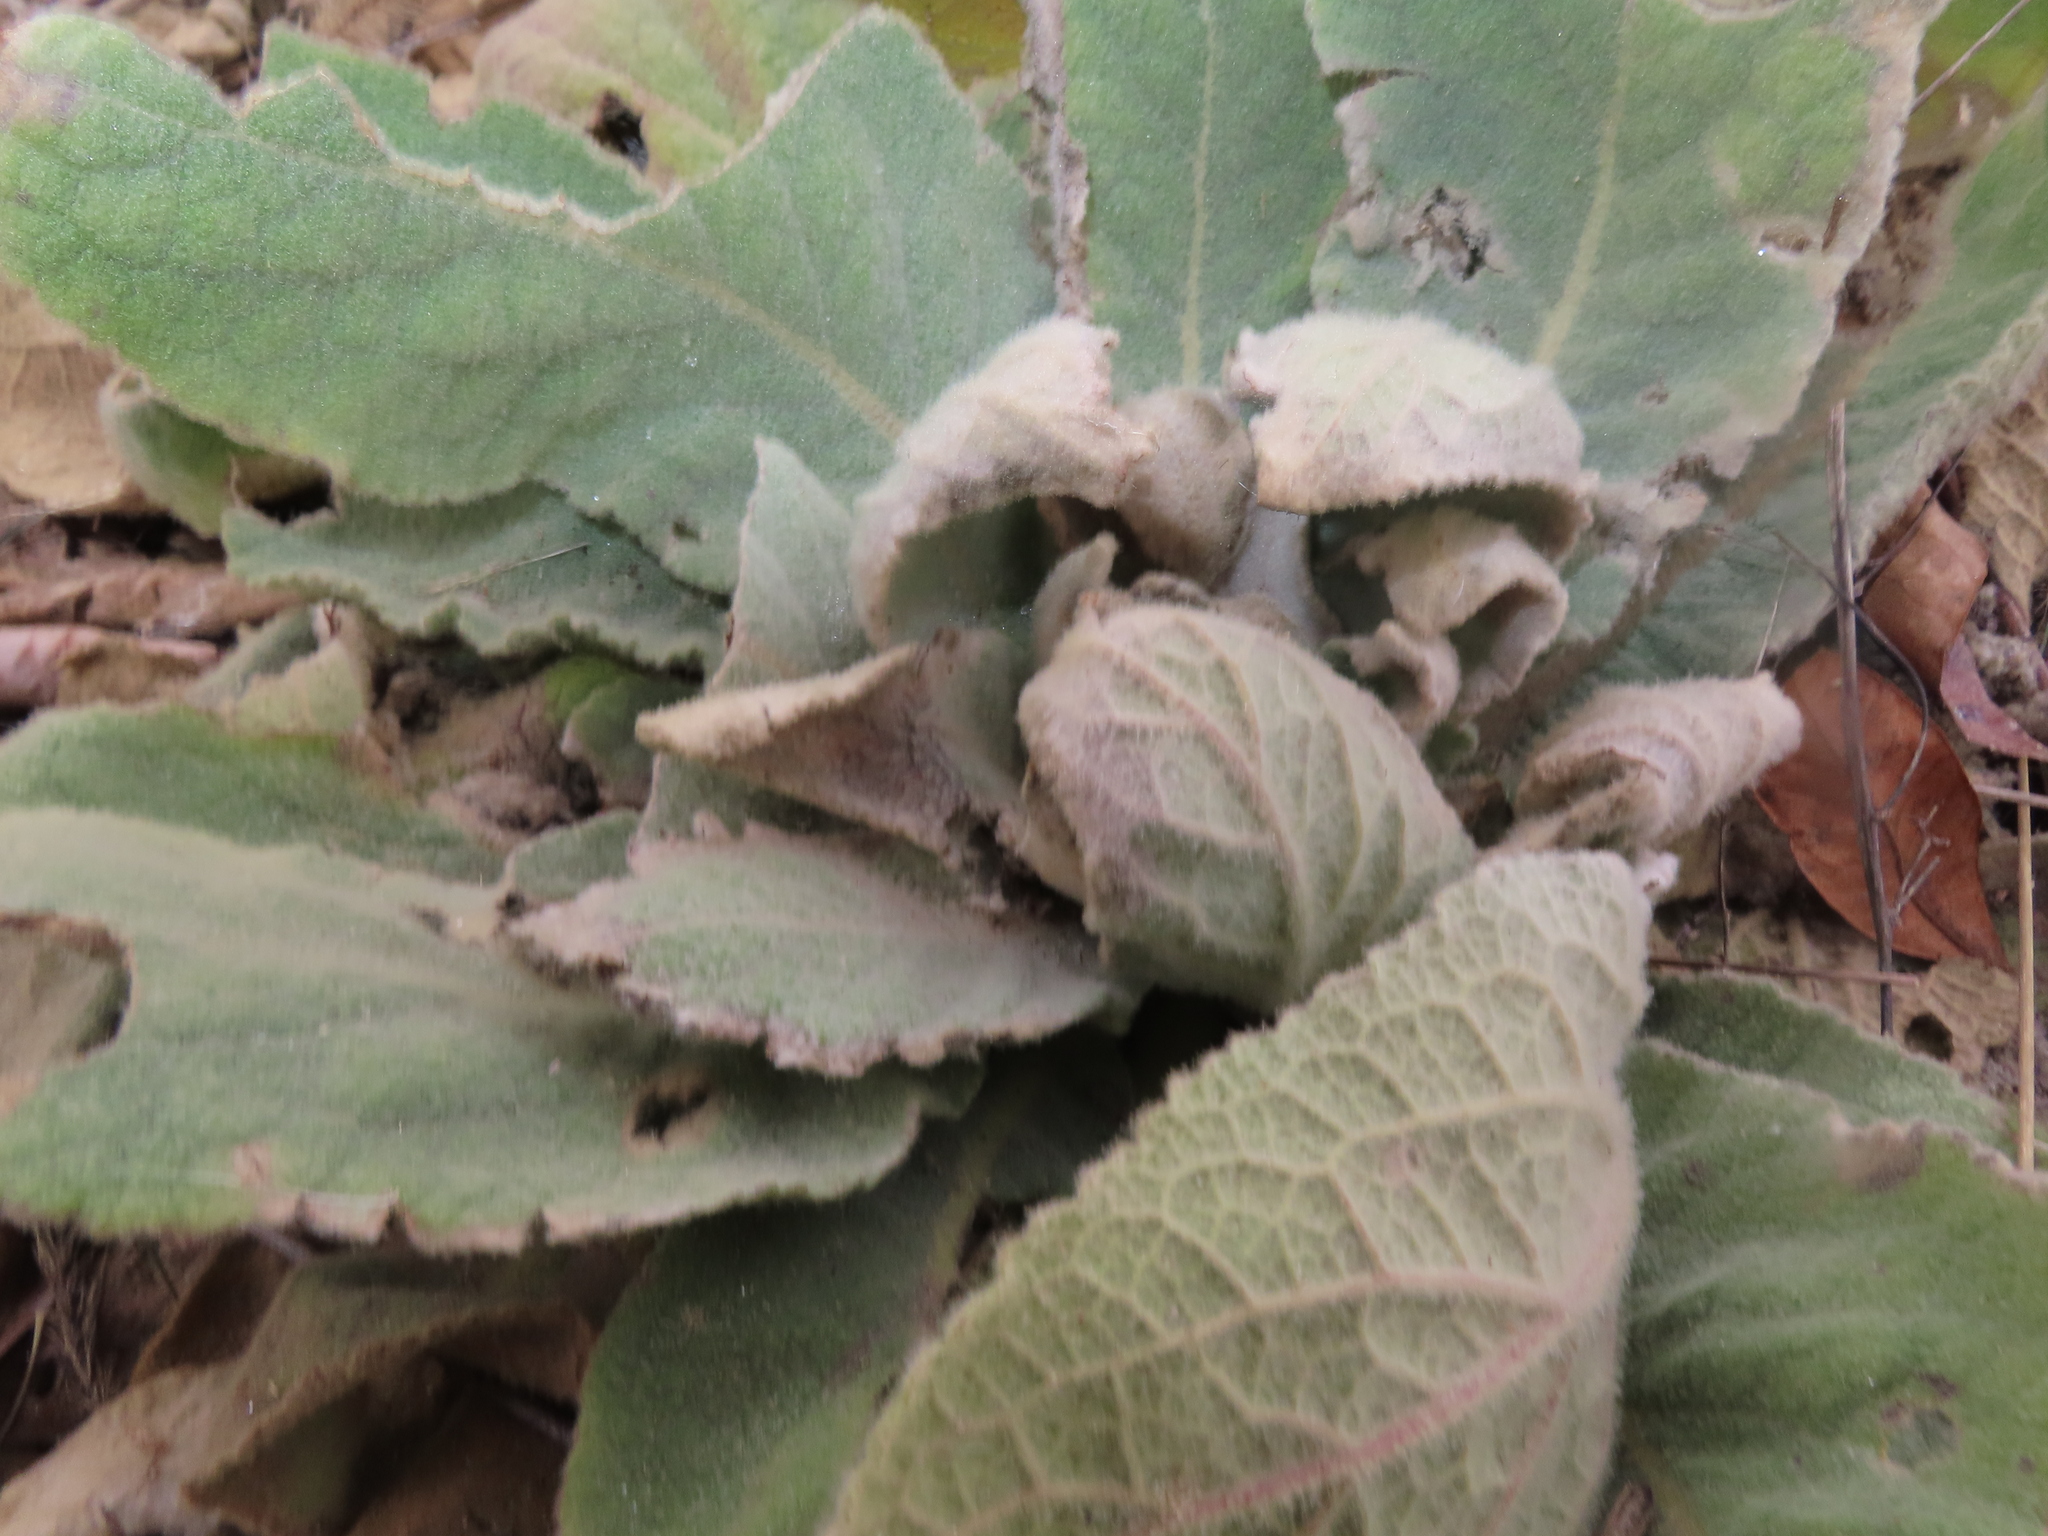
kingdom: Plantae
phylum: Tracheophyta
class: Magnoliopsida
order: Lamiales
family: Scrophulariaceae
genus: Verbascum
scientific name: Verbascum thapsus
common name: Common mullein
